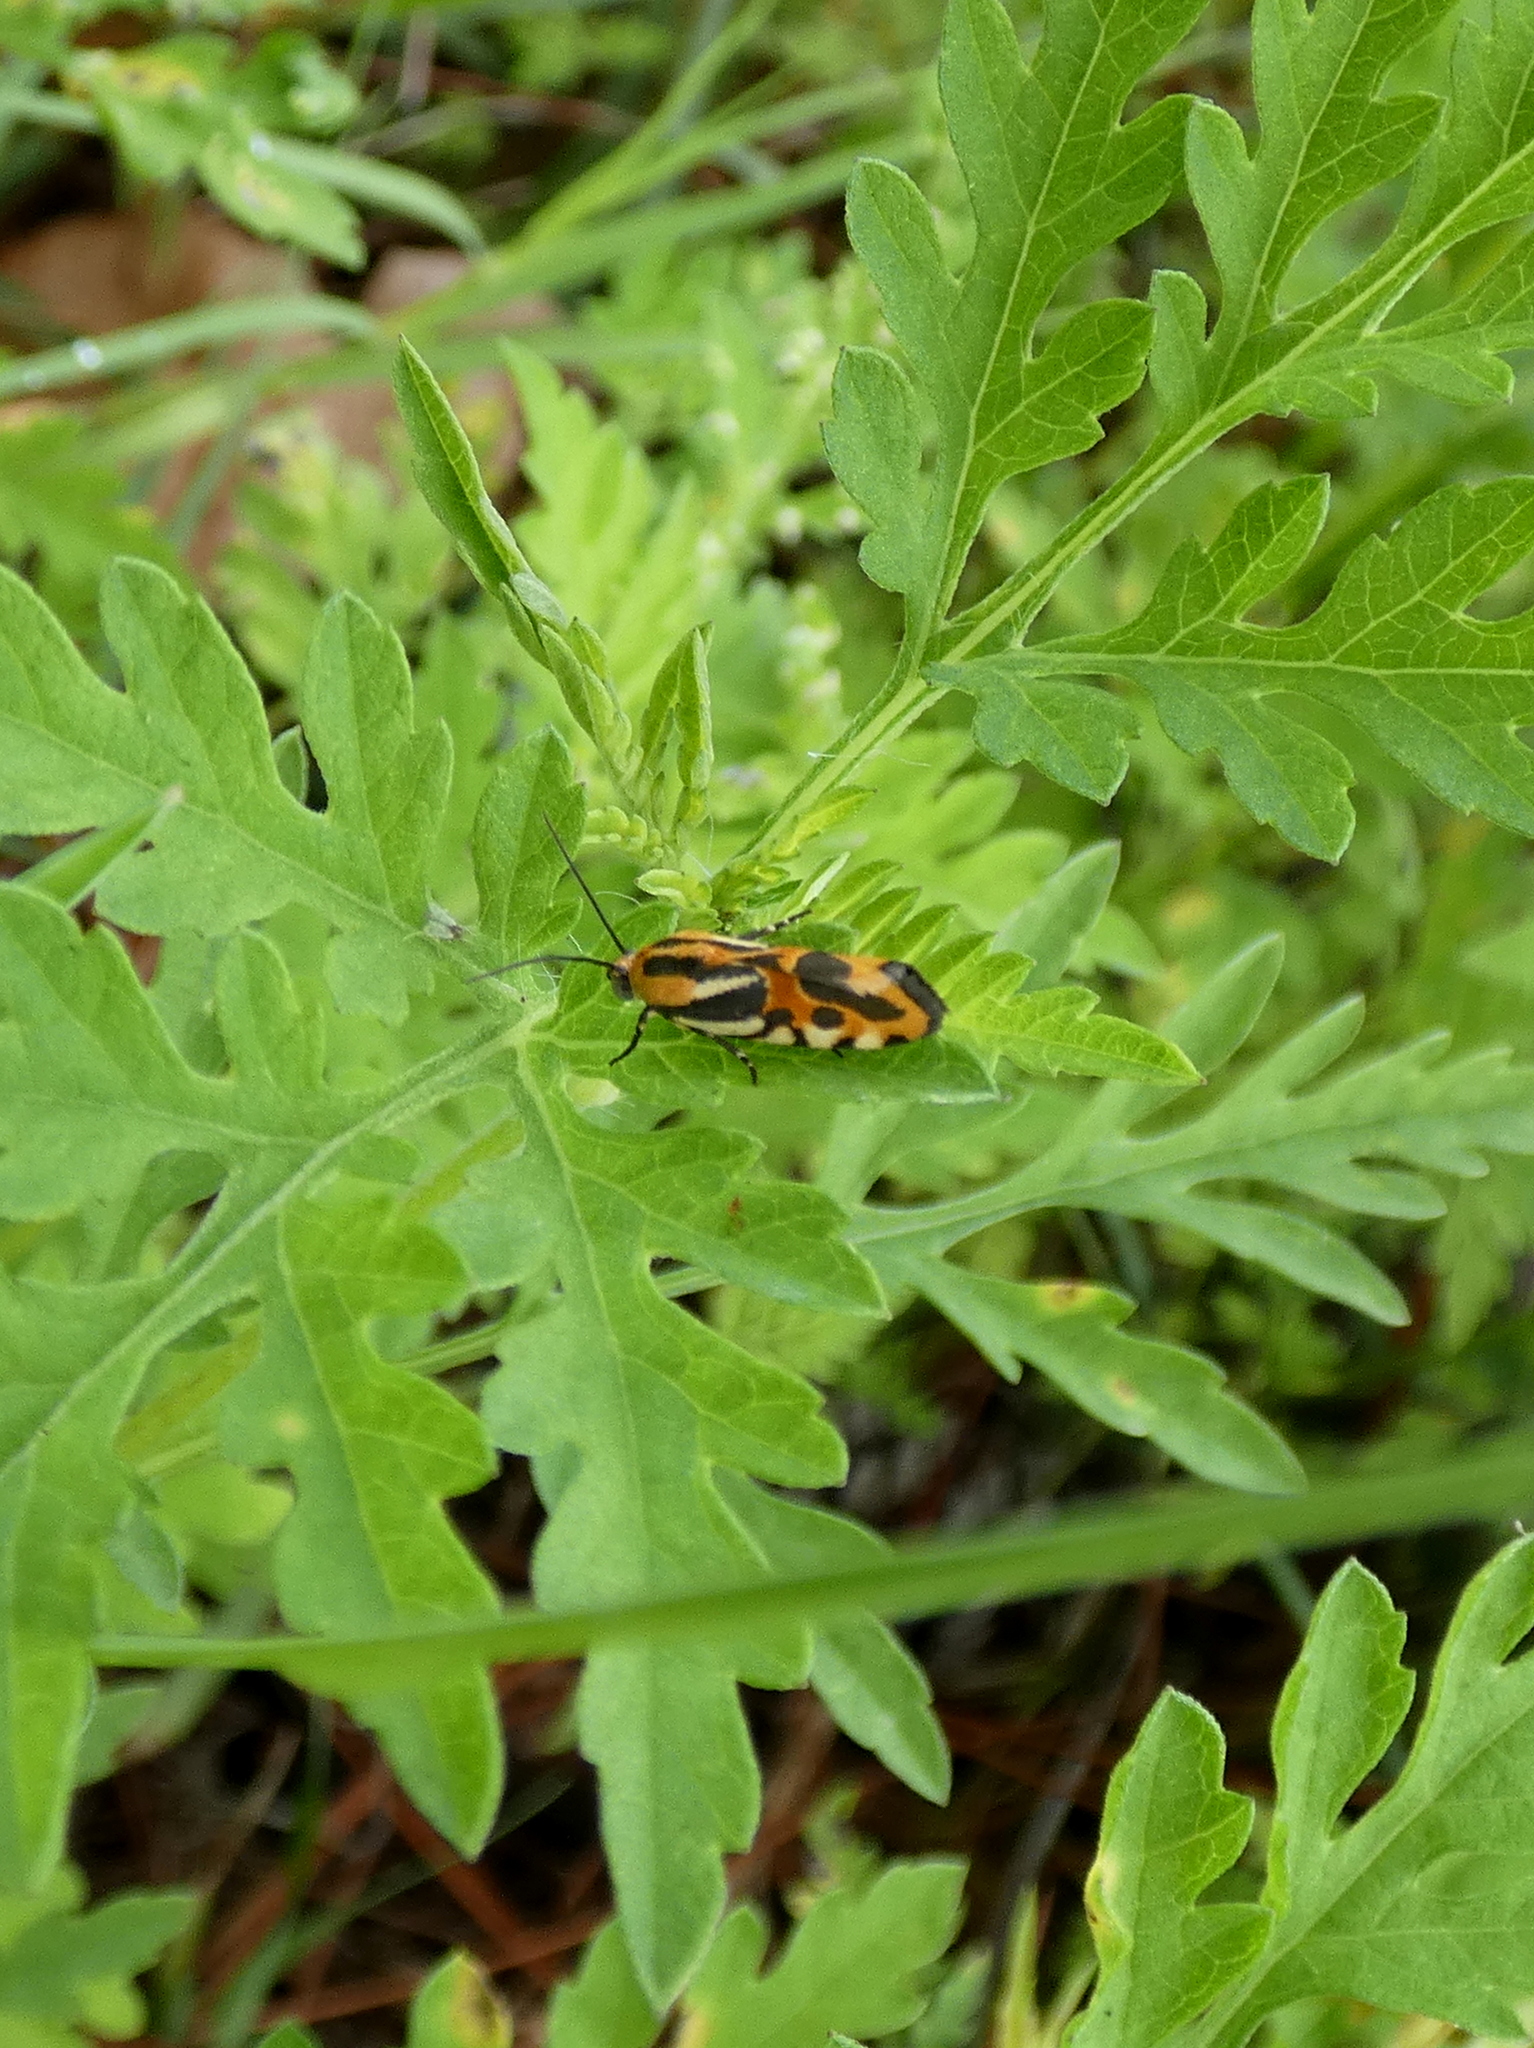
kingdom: Animalia
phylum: Arthropoda
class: Insecta
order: Lepidoptera
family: Noctuidae
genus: Acontia
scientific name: Acontia onagrus
